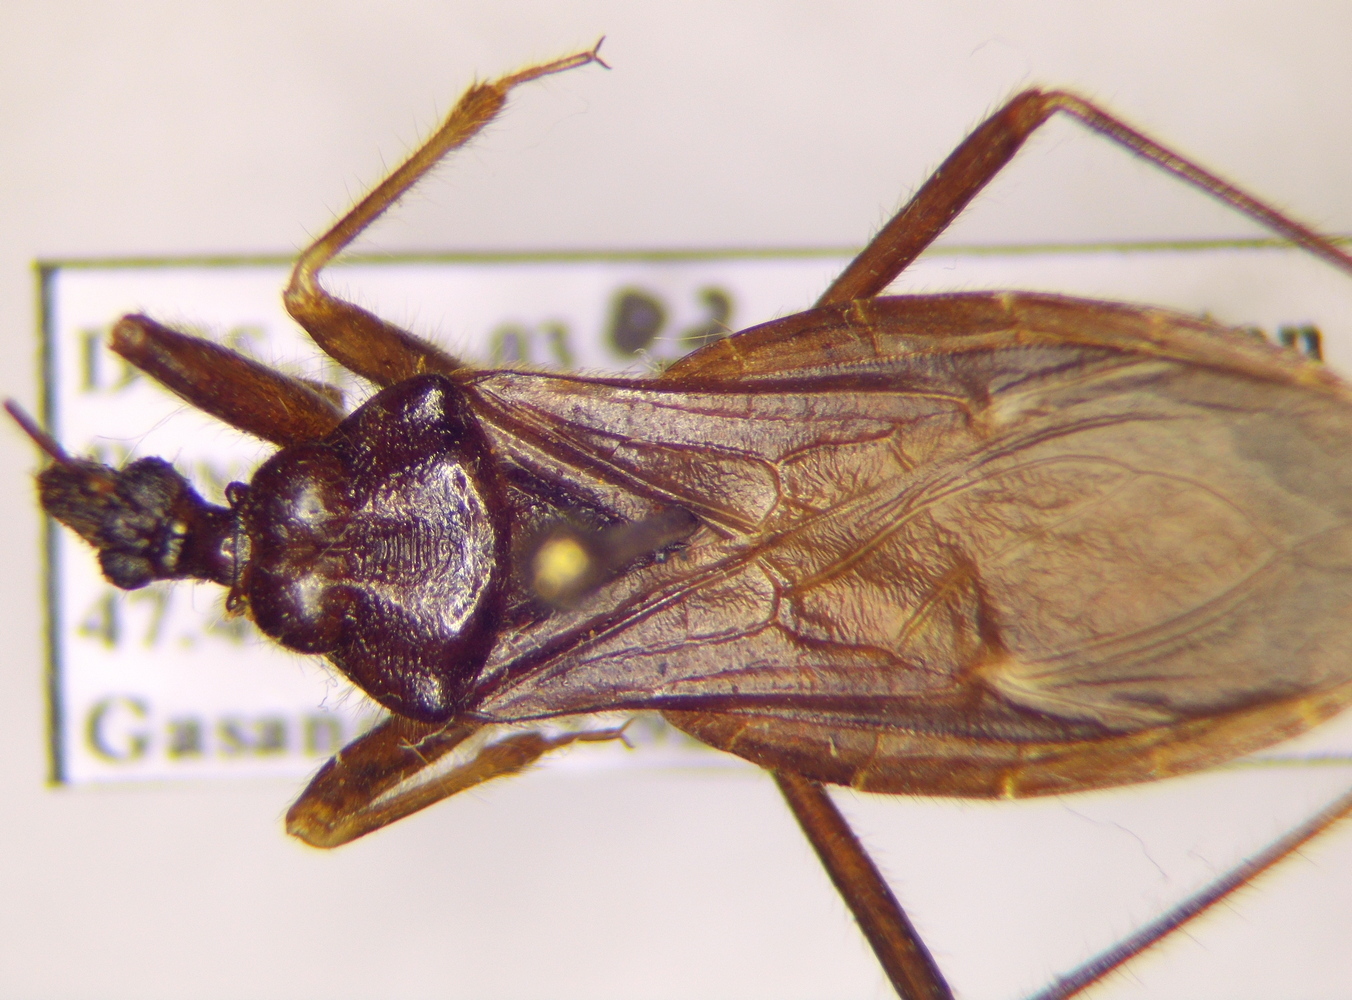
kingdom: Animalia
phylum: Arthropoda
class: Insecta
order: Hemiptera
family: Reduviidae
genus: Reduvius
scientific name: Reduvius personatus
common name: Masked hunter
